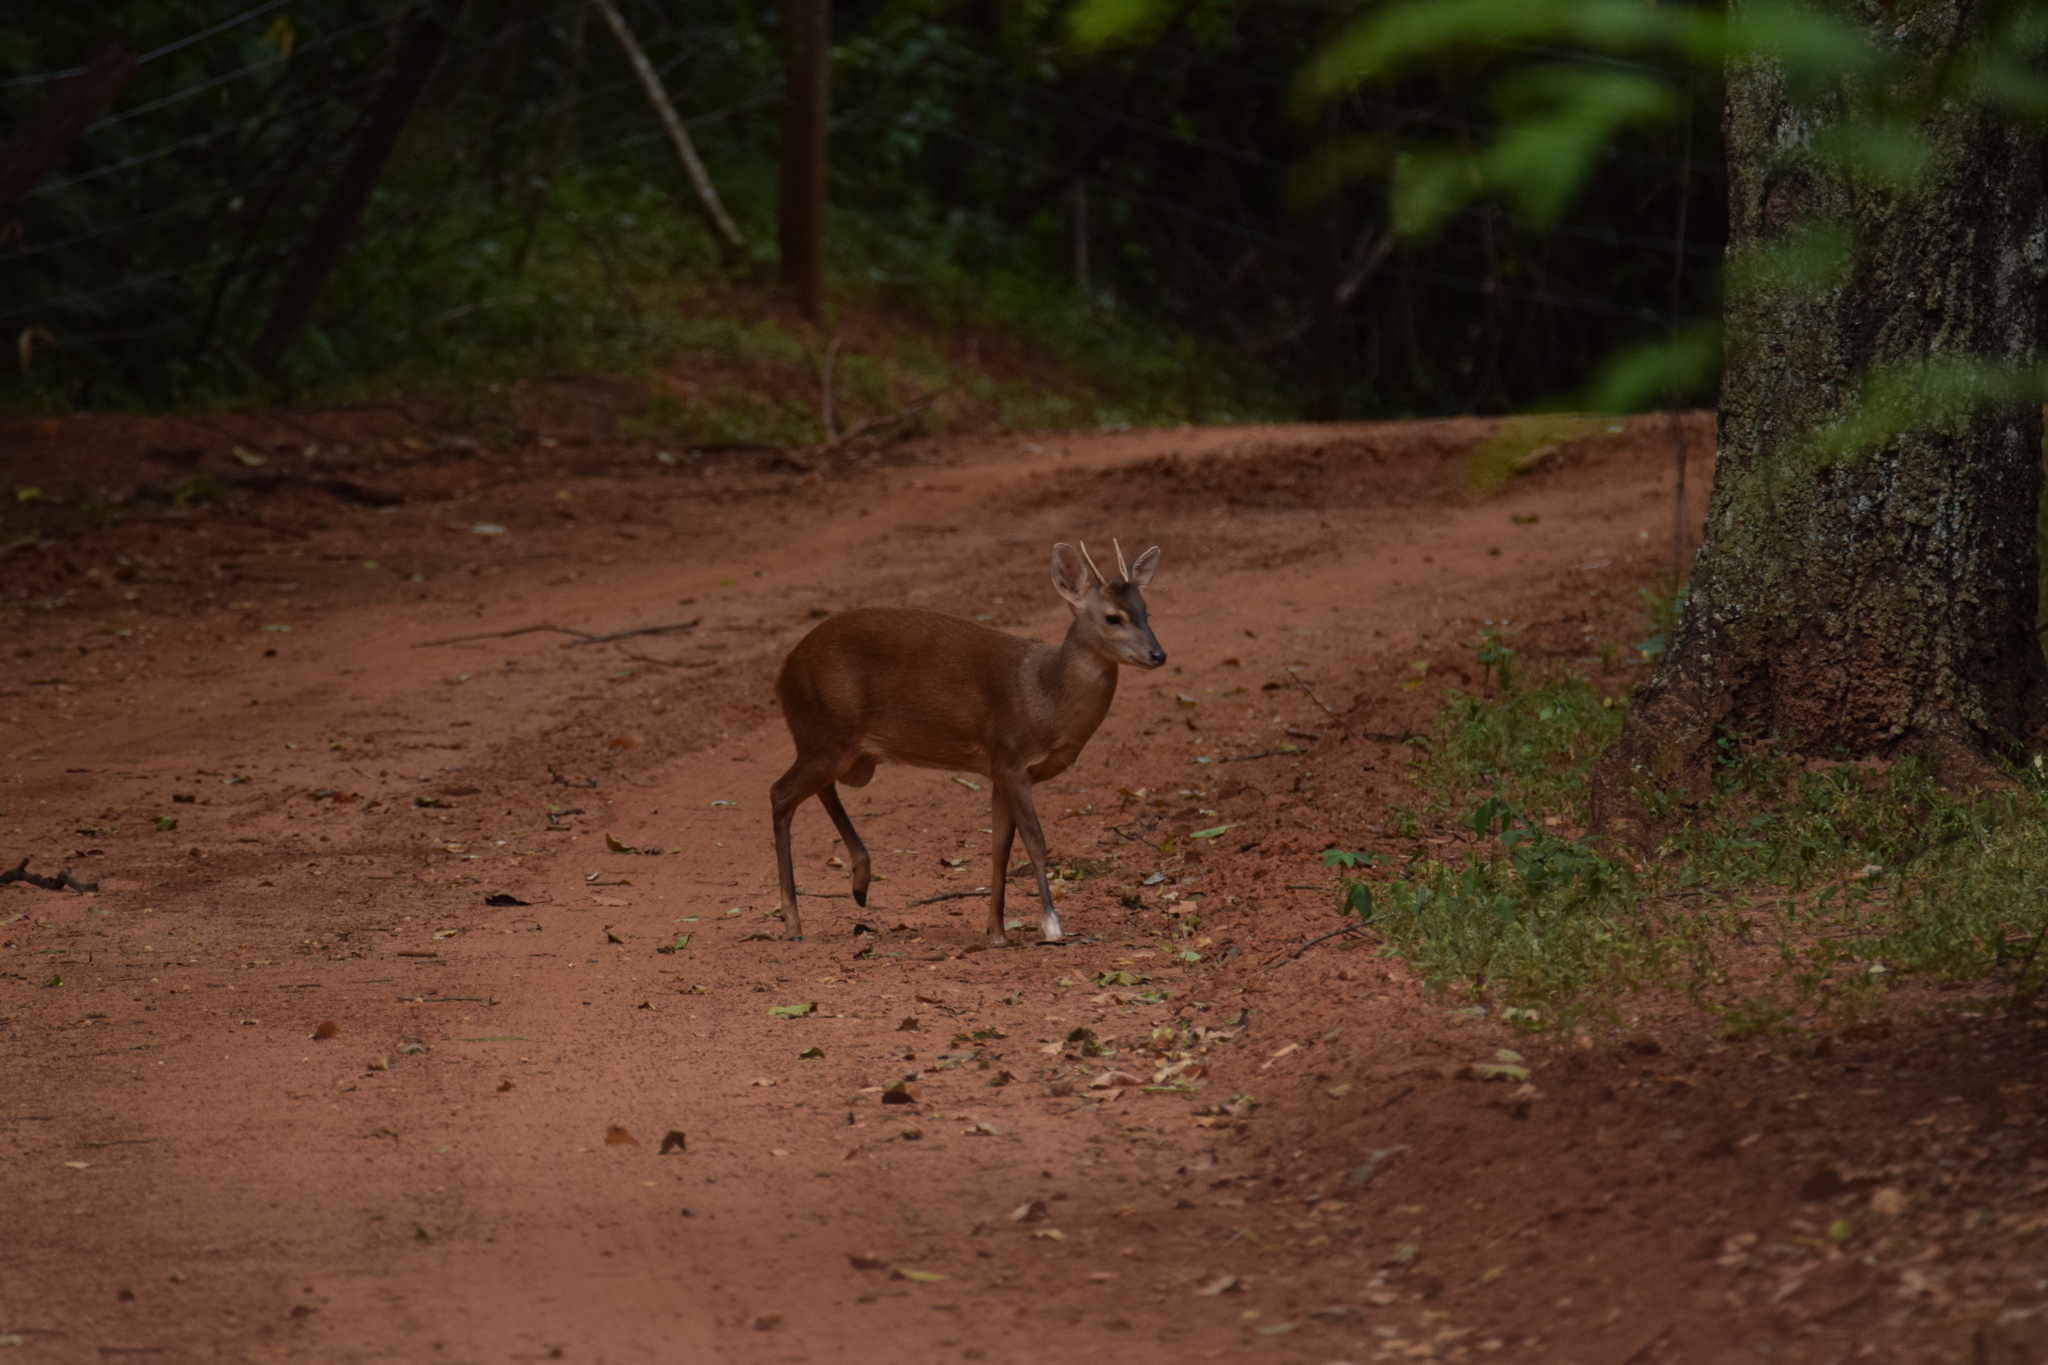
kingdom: Animalia
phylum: Chordata
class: Mammalia
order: Artiodactyla
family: Cervidae
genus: Mazama
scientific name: Mazama gouazoubira
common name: Gray brocket
